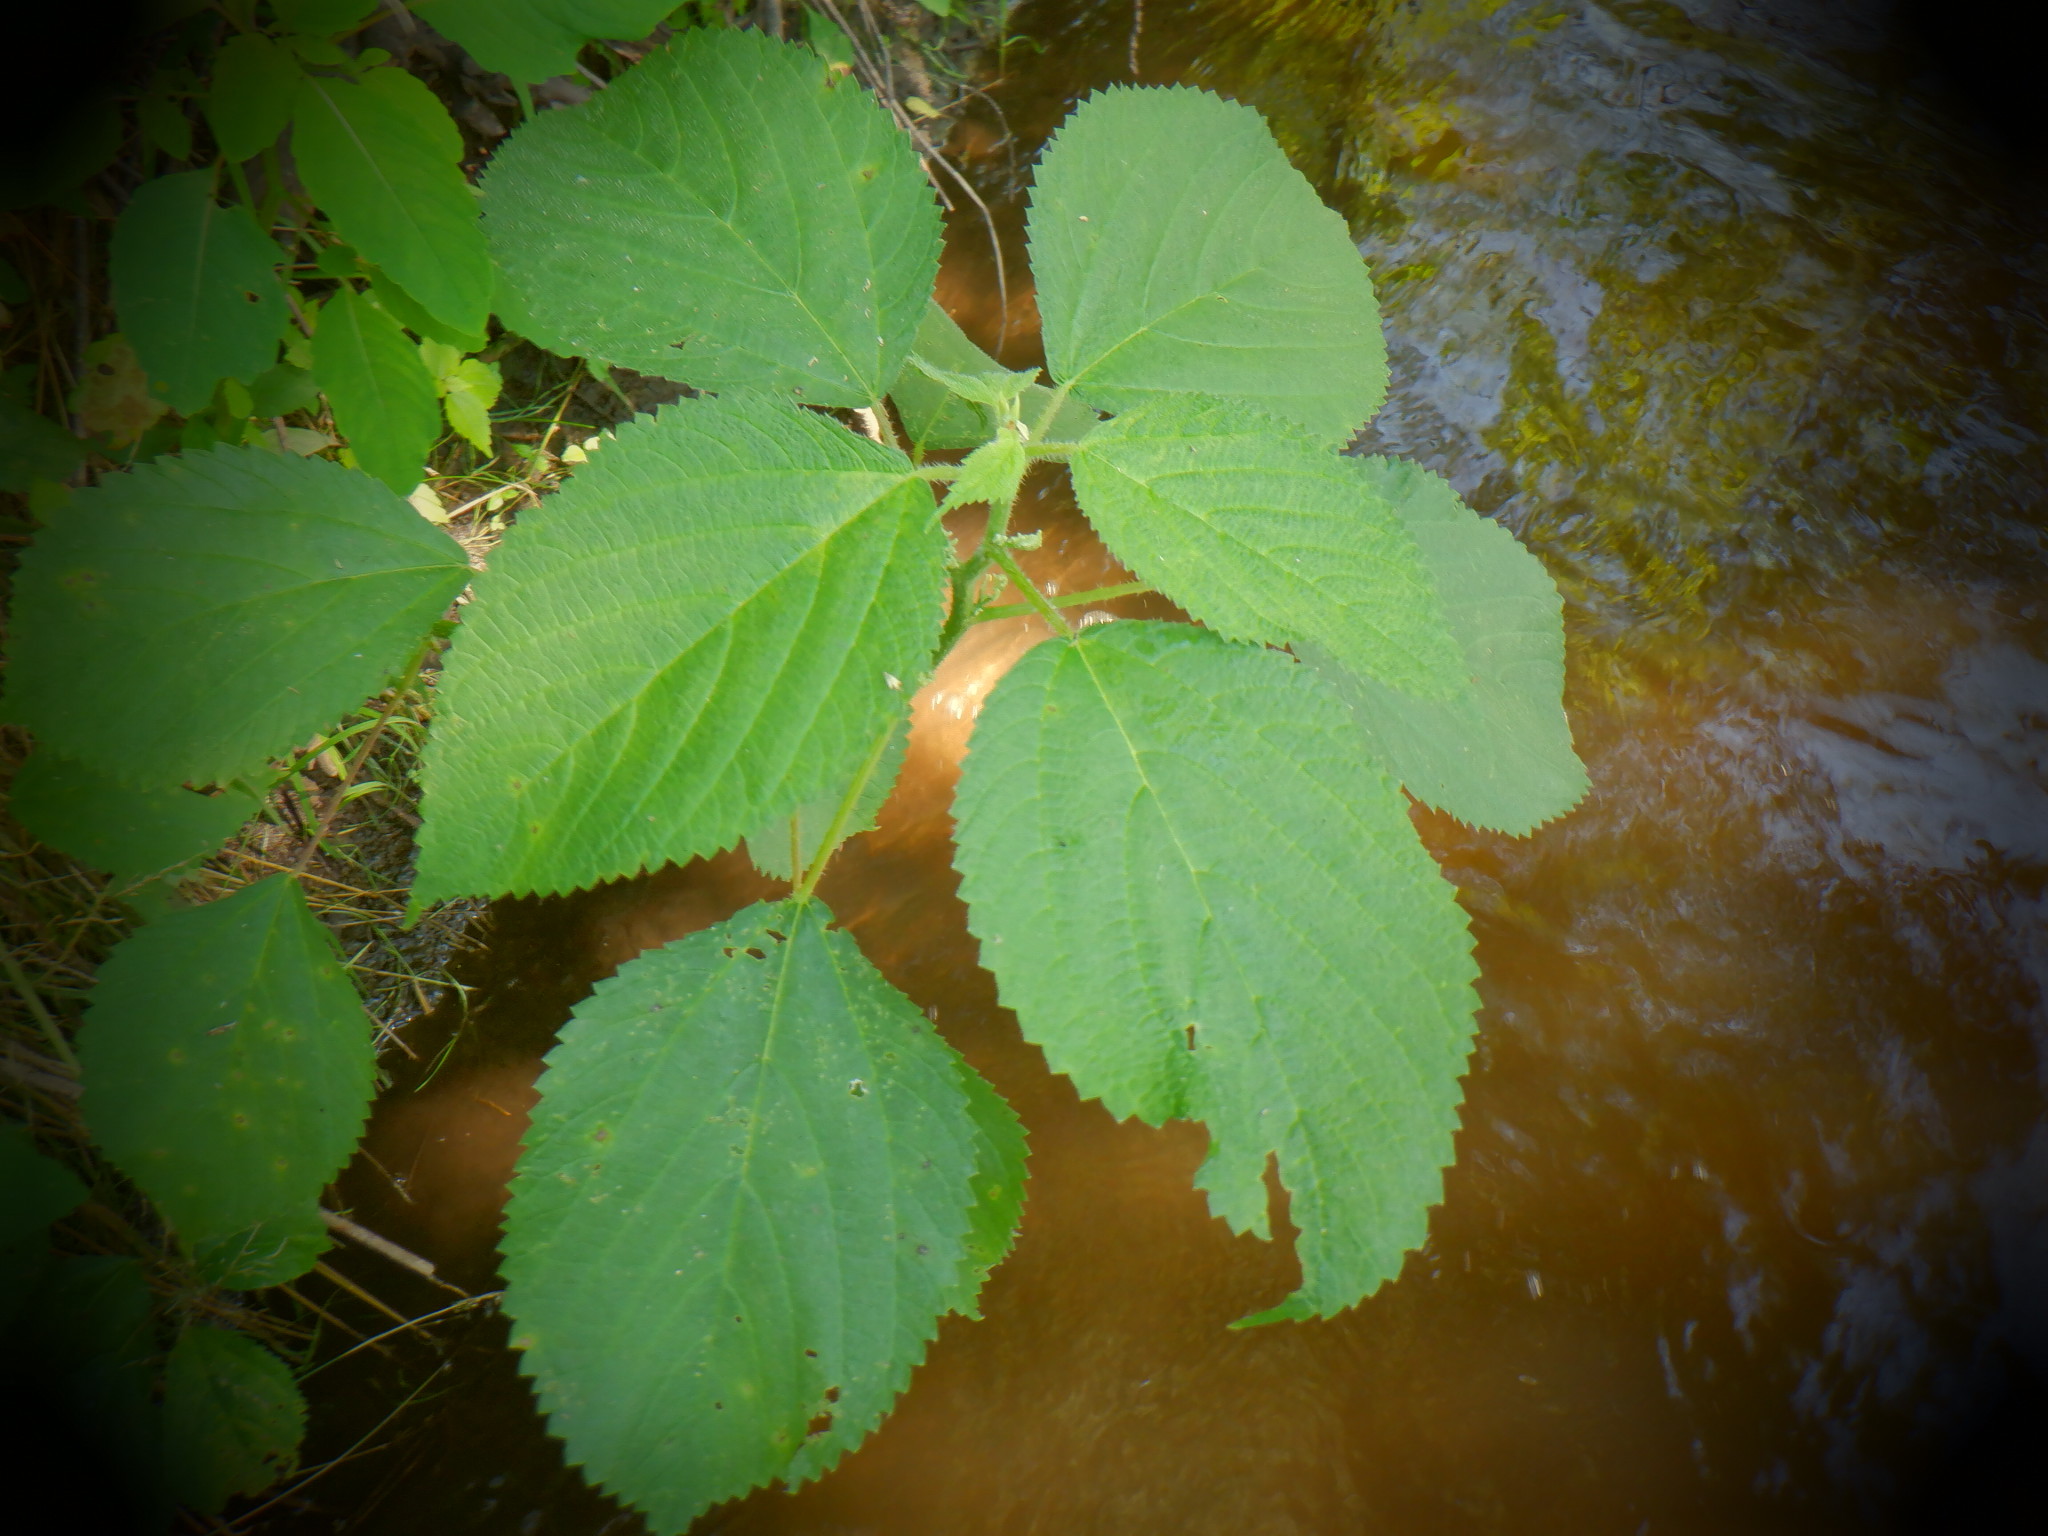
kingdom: Plantae
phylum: Tracheophyta
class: Magnoliopsida
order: Rosales
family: Urticaceae
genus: Laportea
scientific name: Laportea canadensis
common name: Canada nettle
